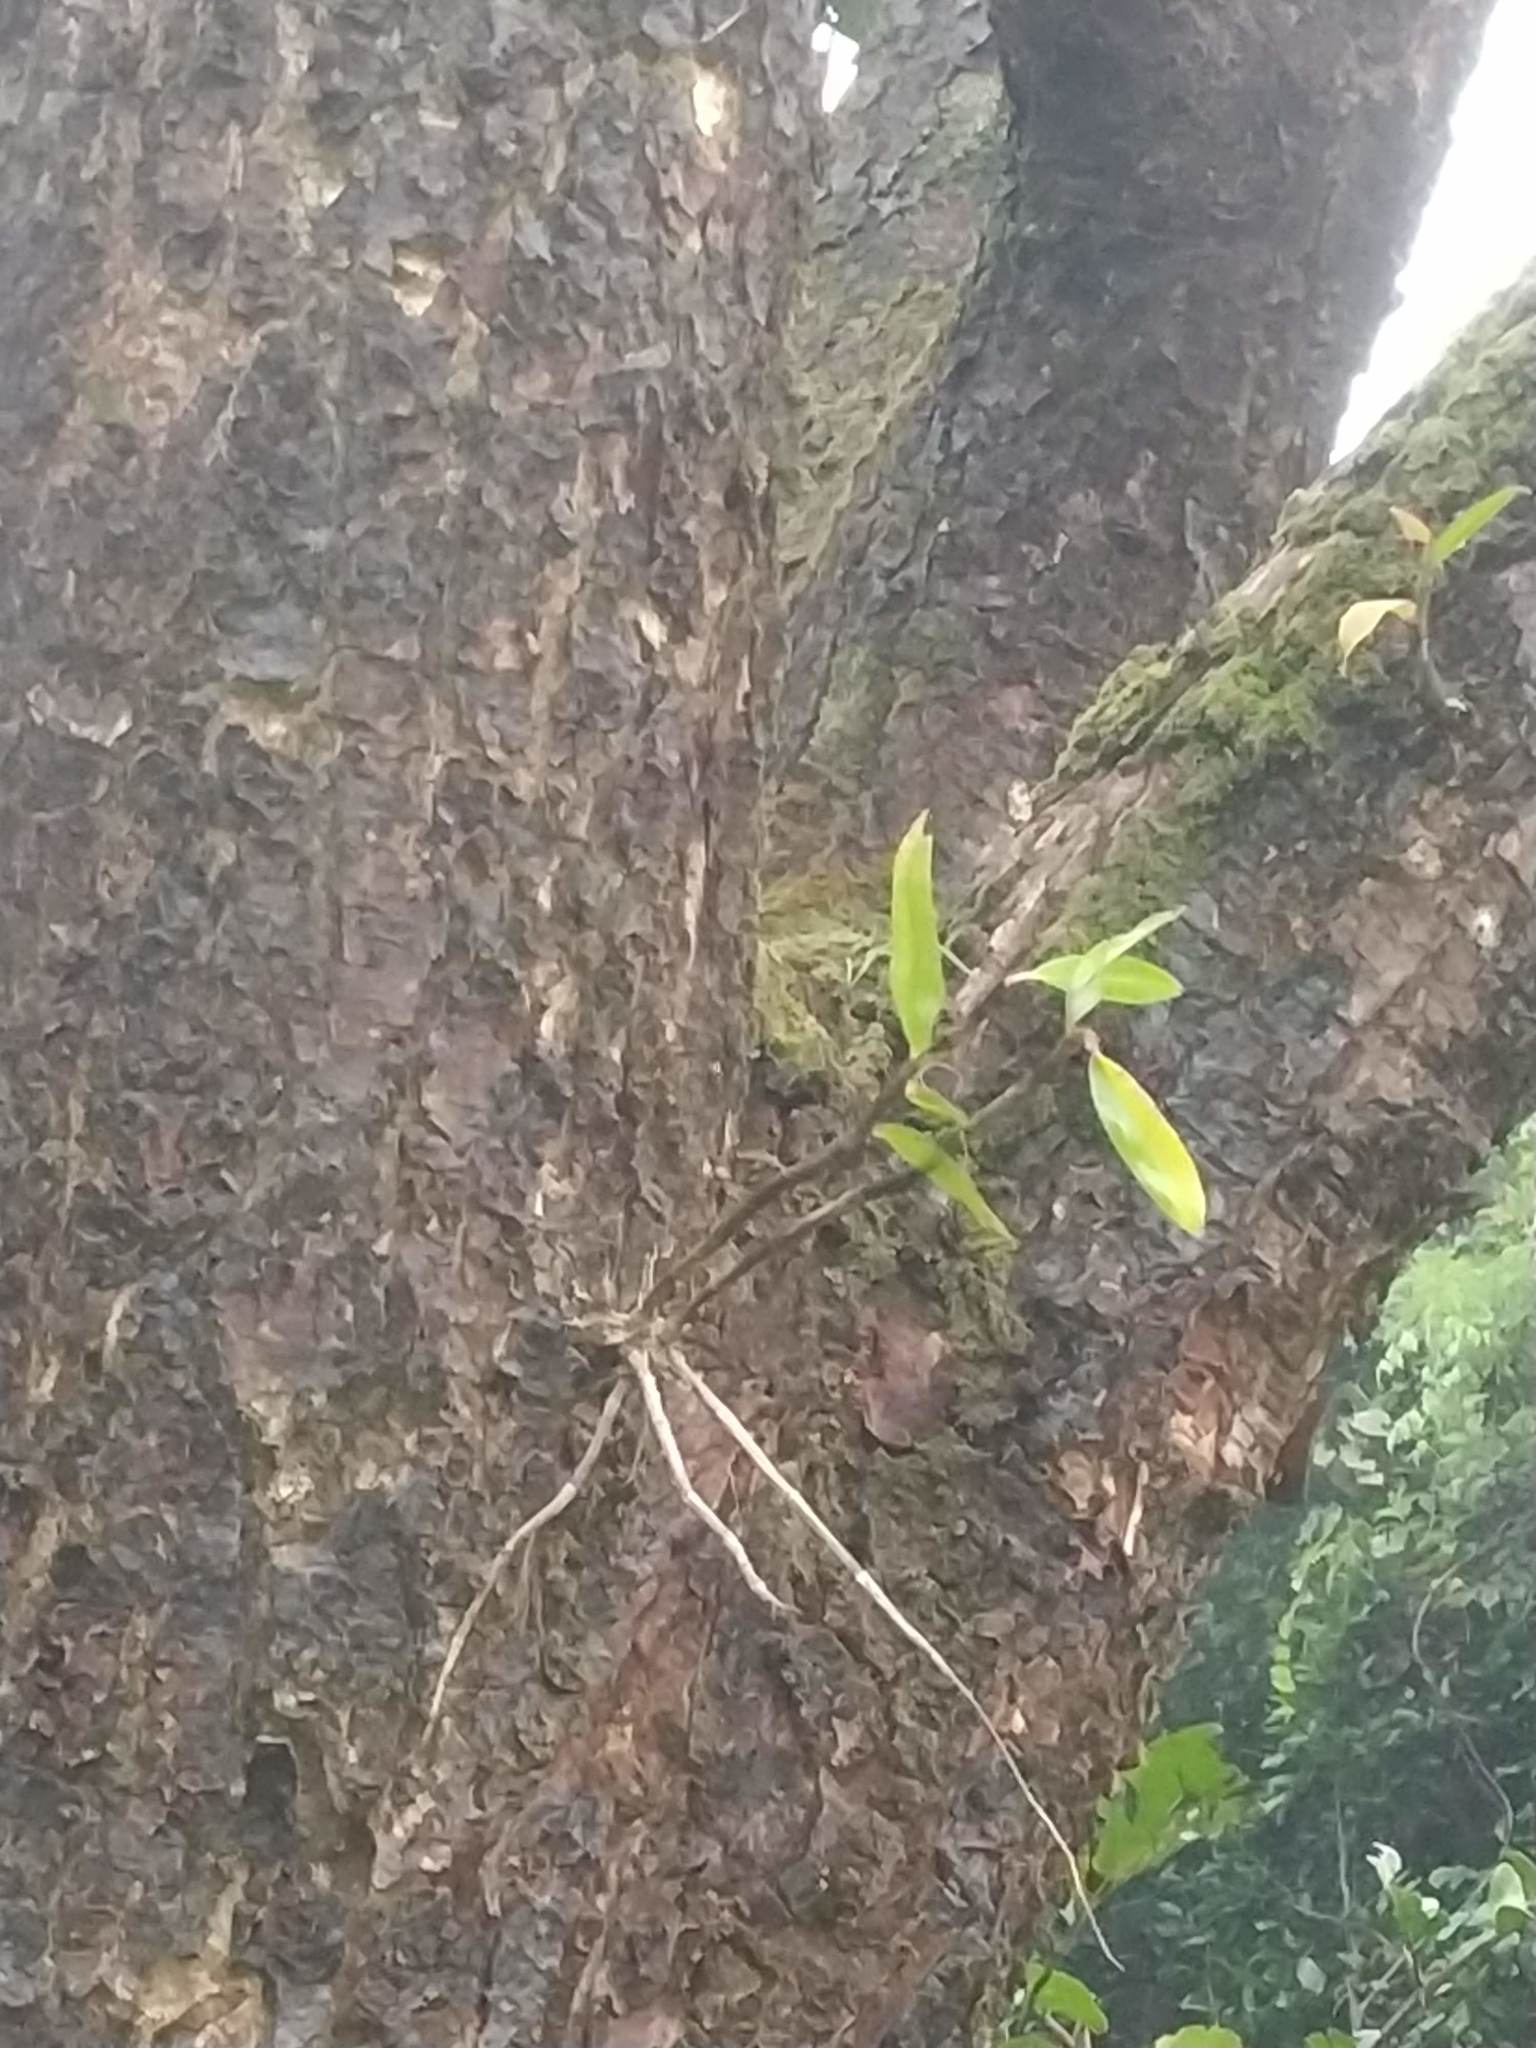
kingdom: Plantae
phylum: Tracheophyta
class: Liliopsida
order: Asparagales
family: Orchidaceae
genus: Dendrobium
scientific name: Dendrobium macrostachyum
